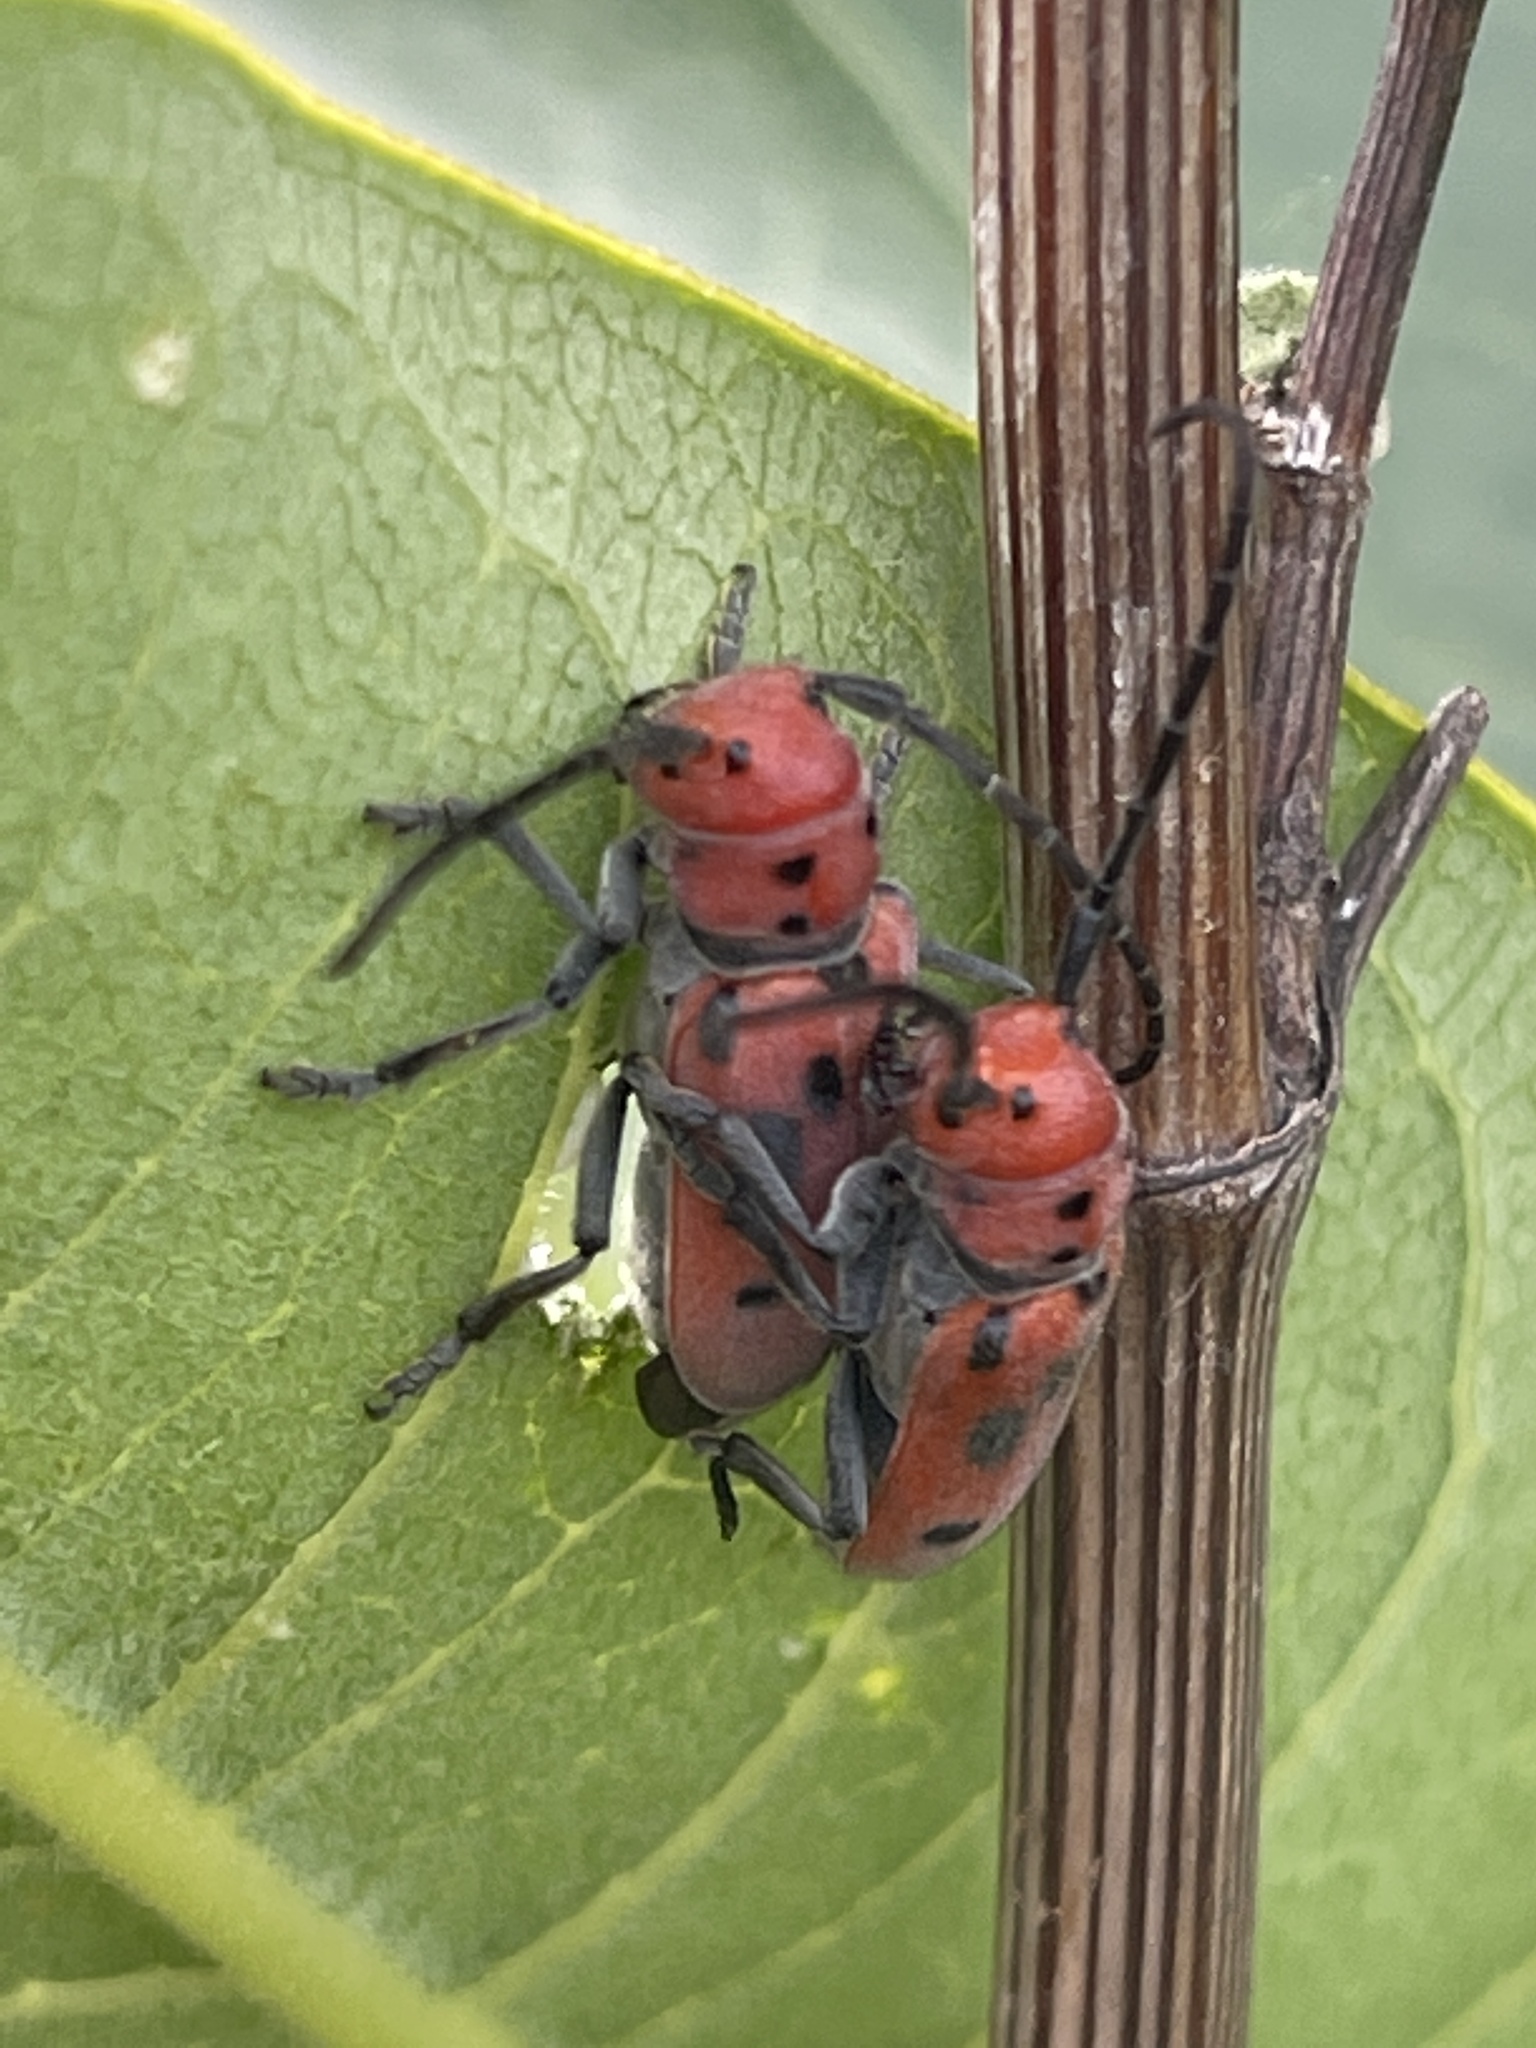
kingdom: Animalia
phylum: Arthropoda
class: Insecta
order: Coleoptera
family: Cerambycidae
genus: Tetraopes
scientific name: Tetraopes tetrophthalmus
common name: Red milkweed beetle
